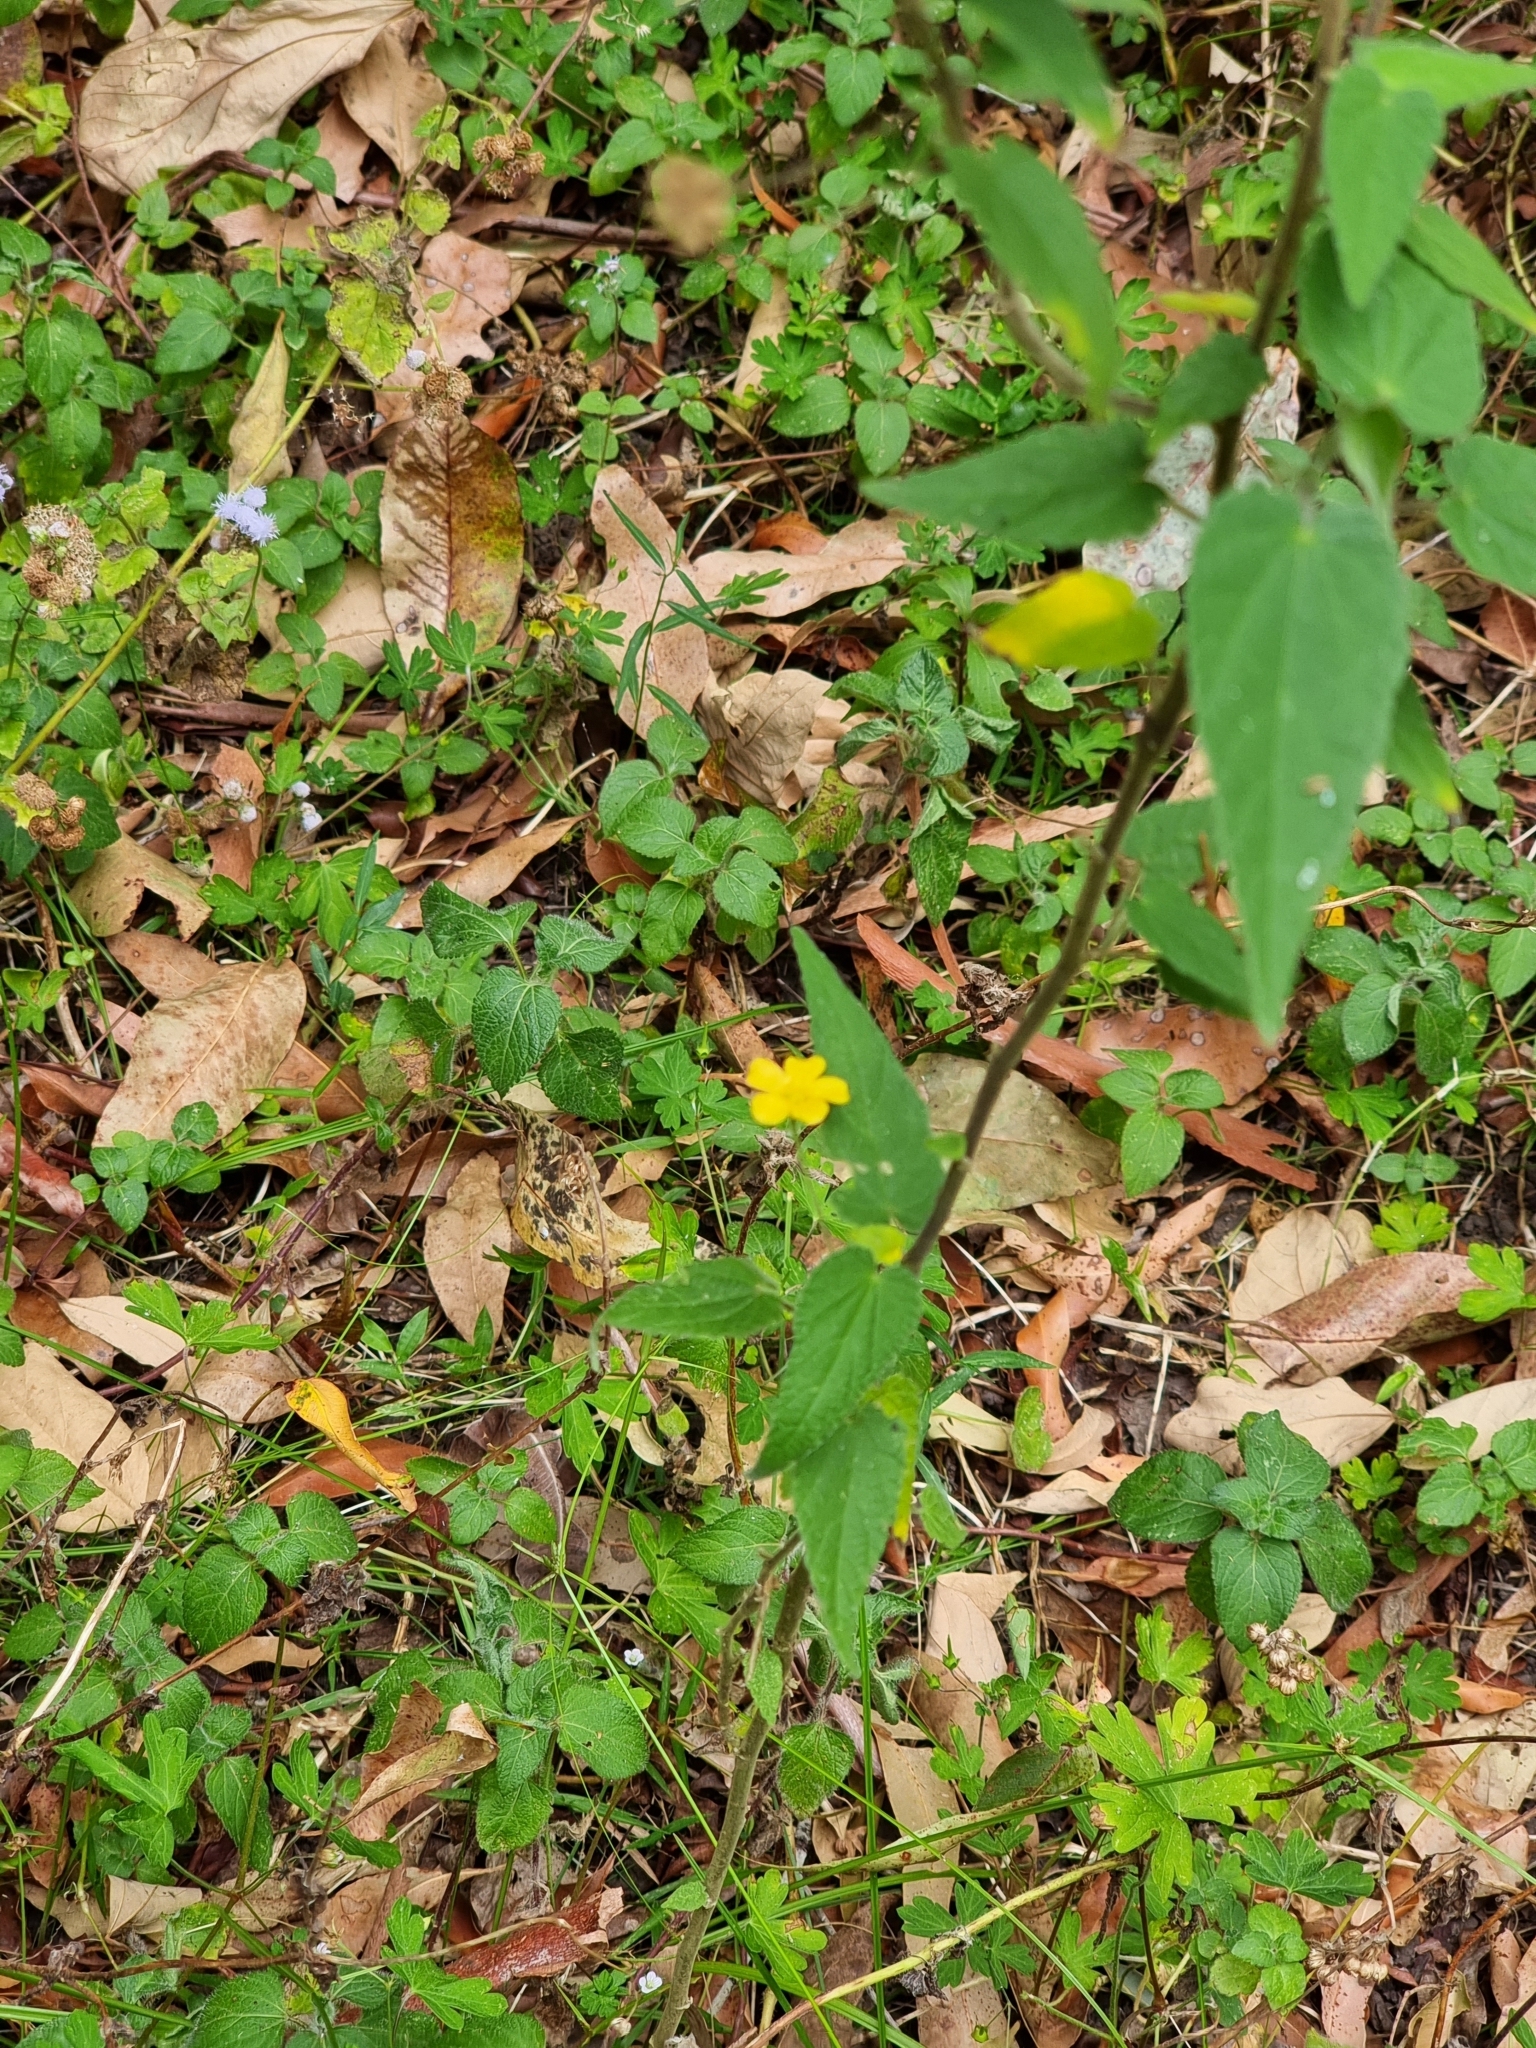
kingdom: Plantae
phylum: Tracheophyta
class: Magnoliopsida
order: Malvales
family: Malvaceae
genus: Abutilon
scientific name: Abutilon oxycarpum
